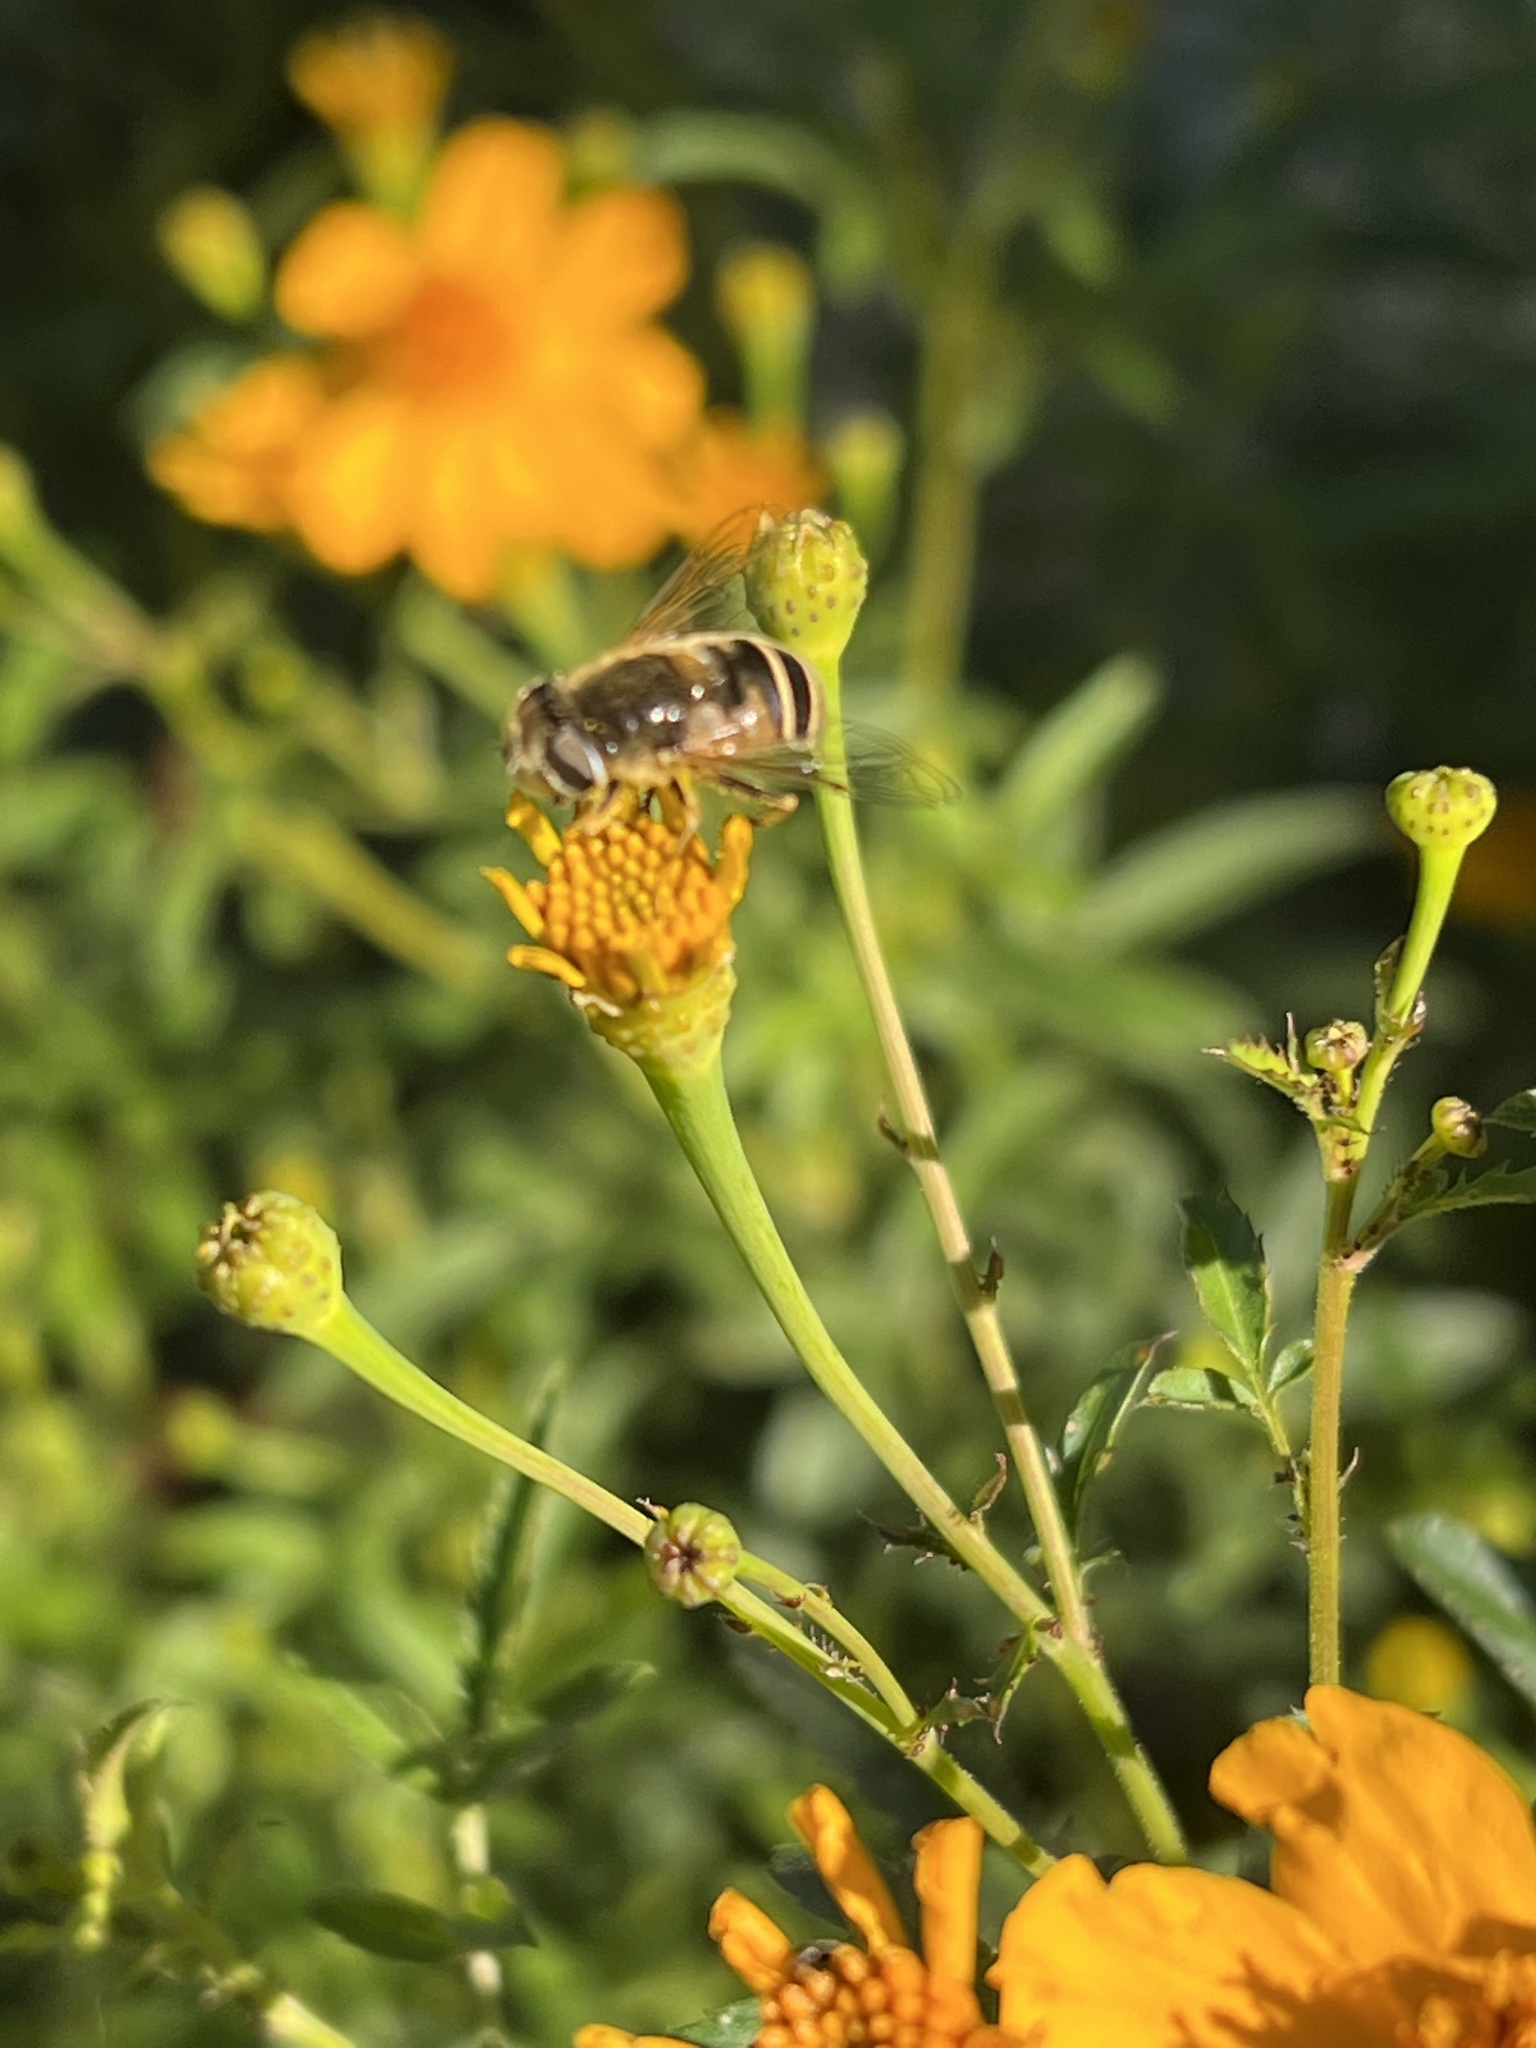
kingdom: Animalia
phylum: Arthropoda
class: Insecta
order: Diptera
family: Syrphidae
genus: Eristalis
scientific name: Eristalis hirta
